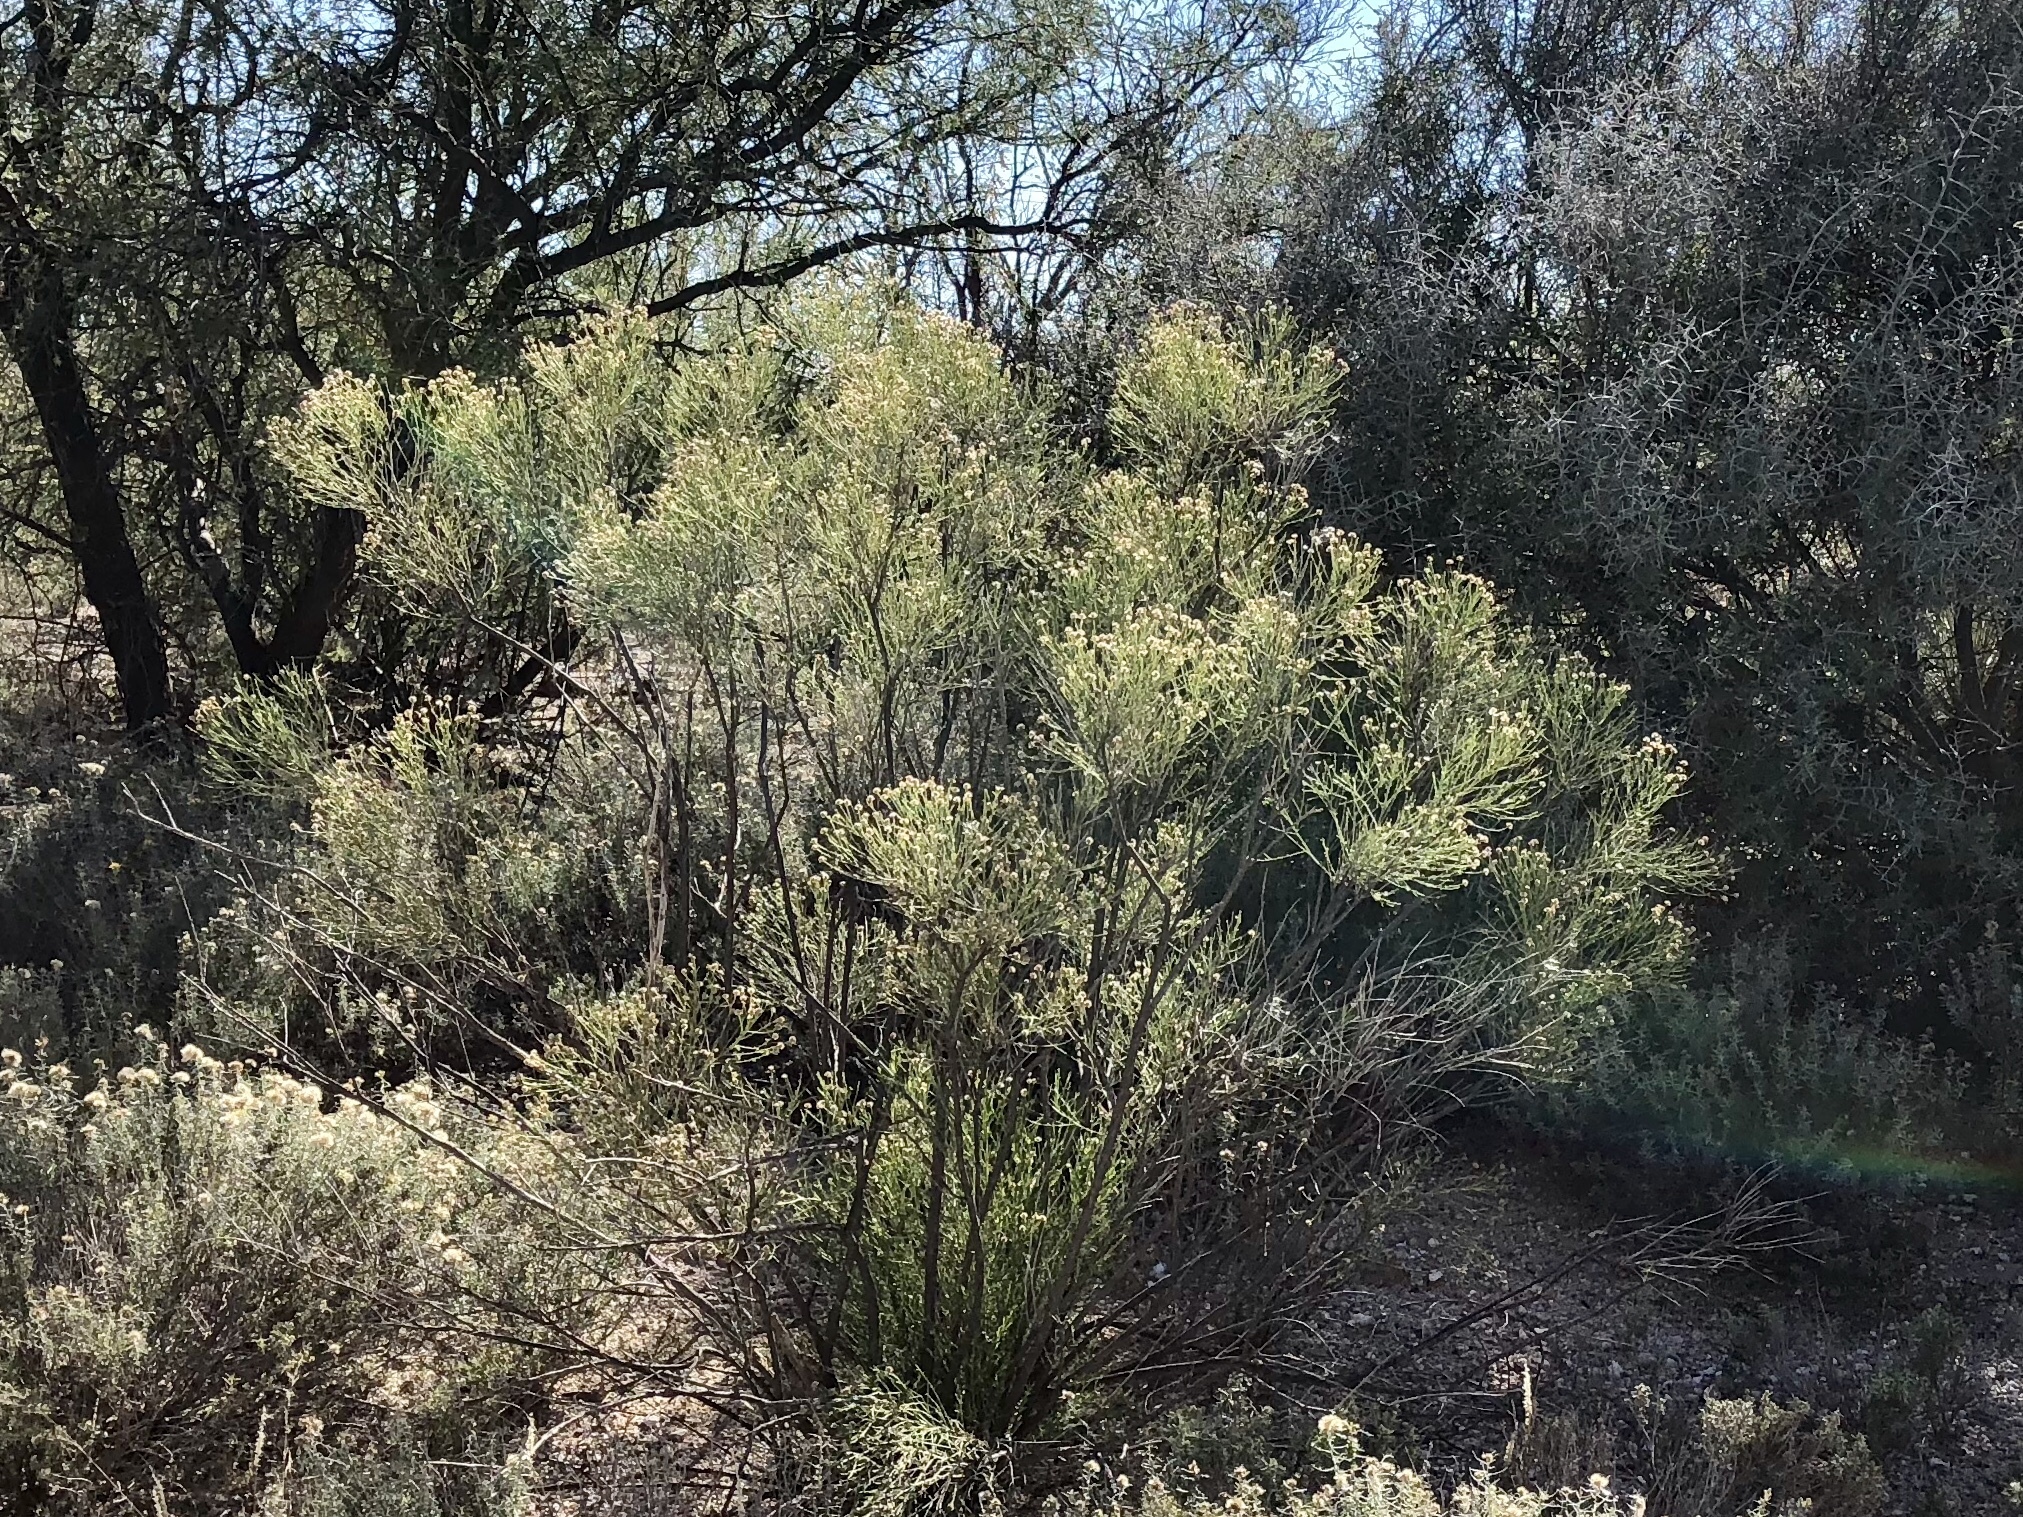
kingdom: Plantae
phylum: Tracheophyta
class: Magnoliopsida
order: Asterales
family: Asteraceae
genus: Baccharis
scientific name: Baccharis sarothroides
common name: Desert-broom
